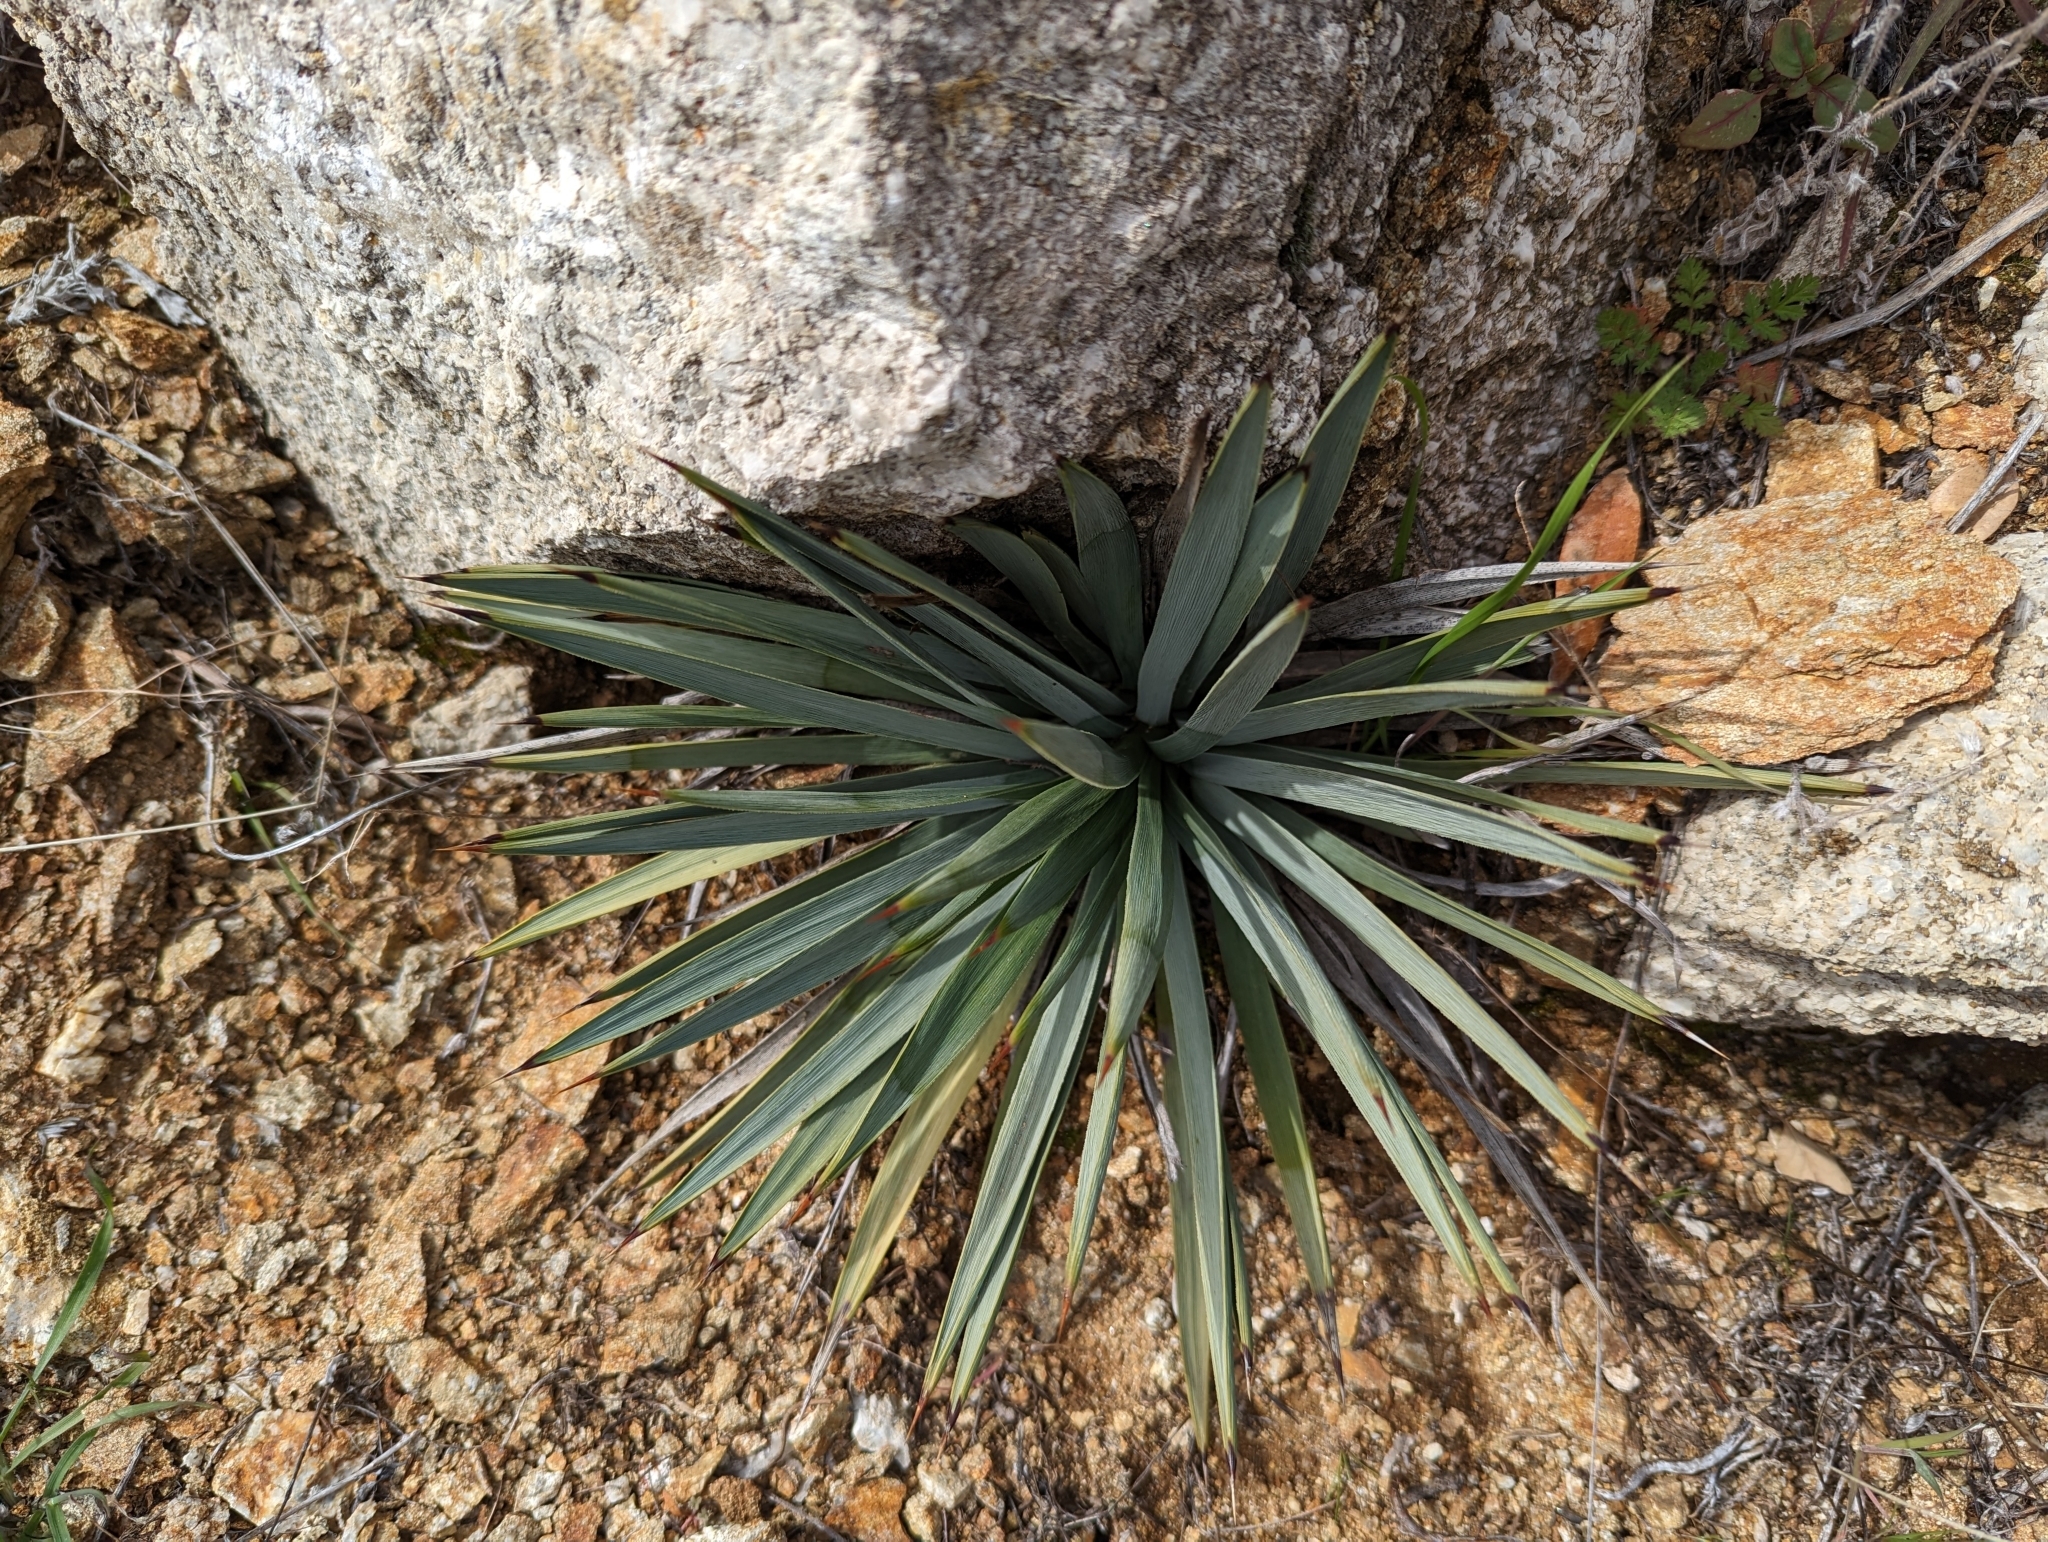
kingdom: Plantae
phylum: Tracheophyta
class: Liliopsida
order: Asparagales
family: Asparagaceae
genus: Hesperoyucca
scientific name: Hesperoyucca whipplei
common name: Our lord's-candle
